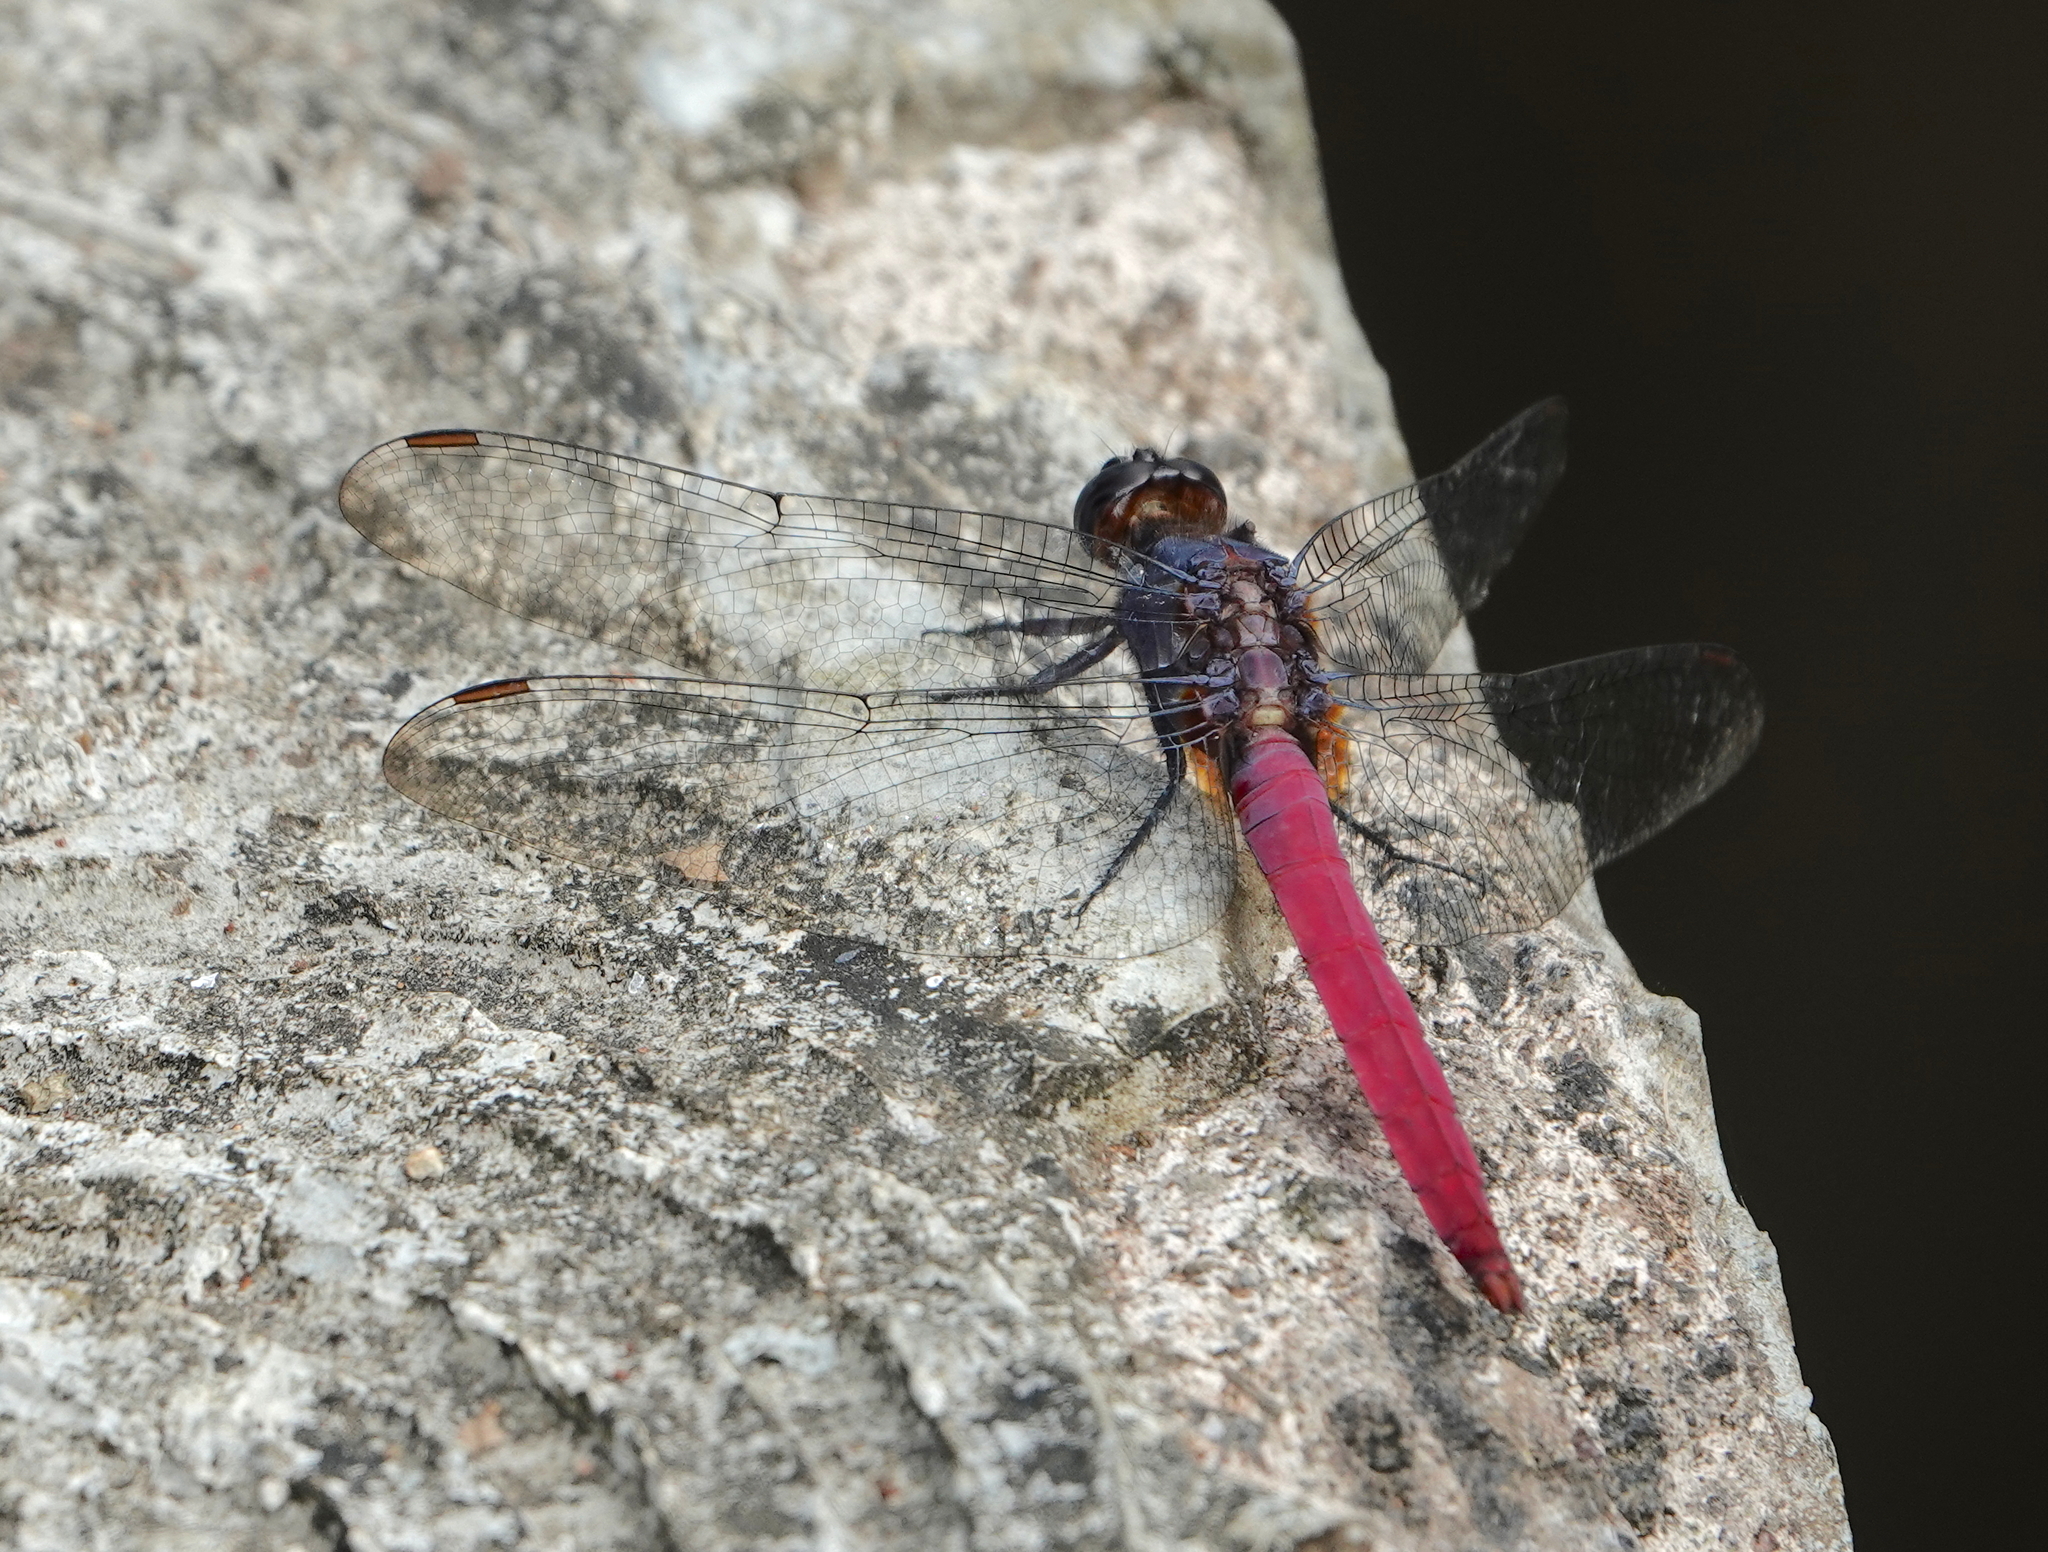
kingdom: Animalia
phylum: Arthropoda
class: Insecta
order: Odonata
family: Libellulidae
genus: Orthetrum
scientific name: Orthetrum pruinosum
